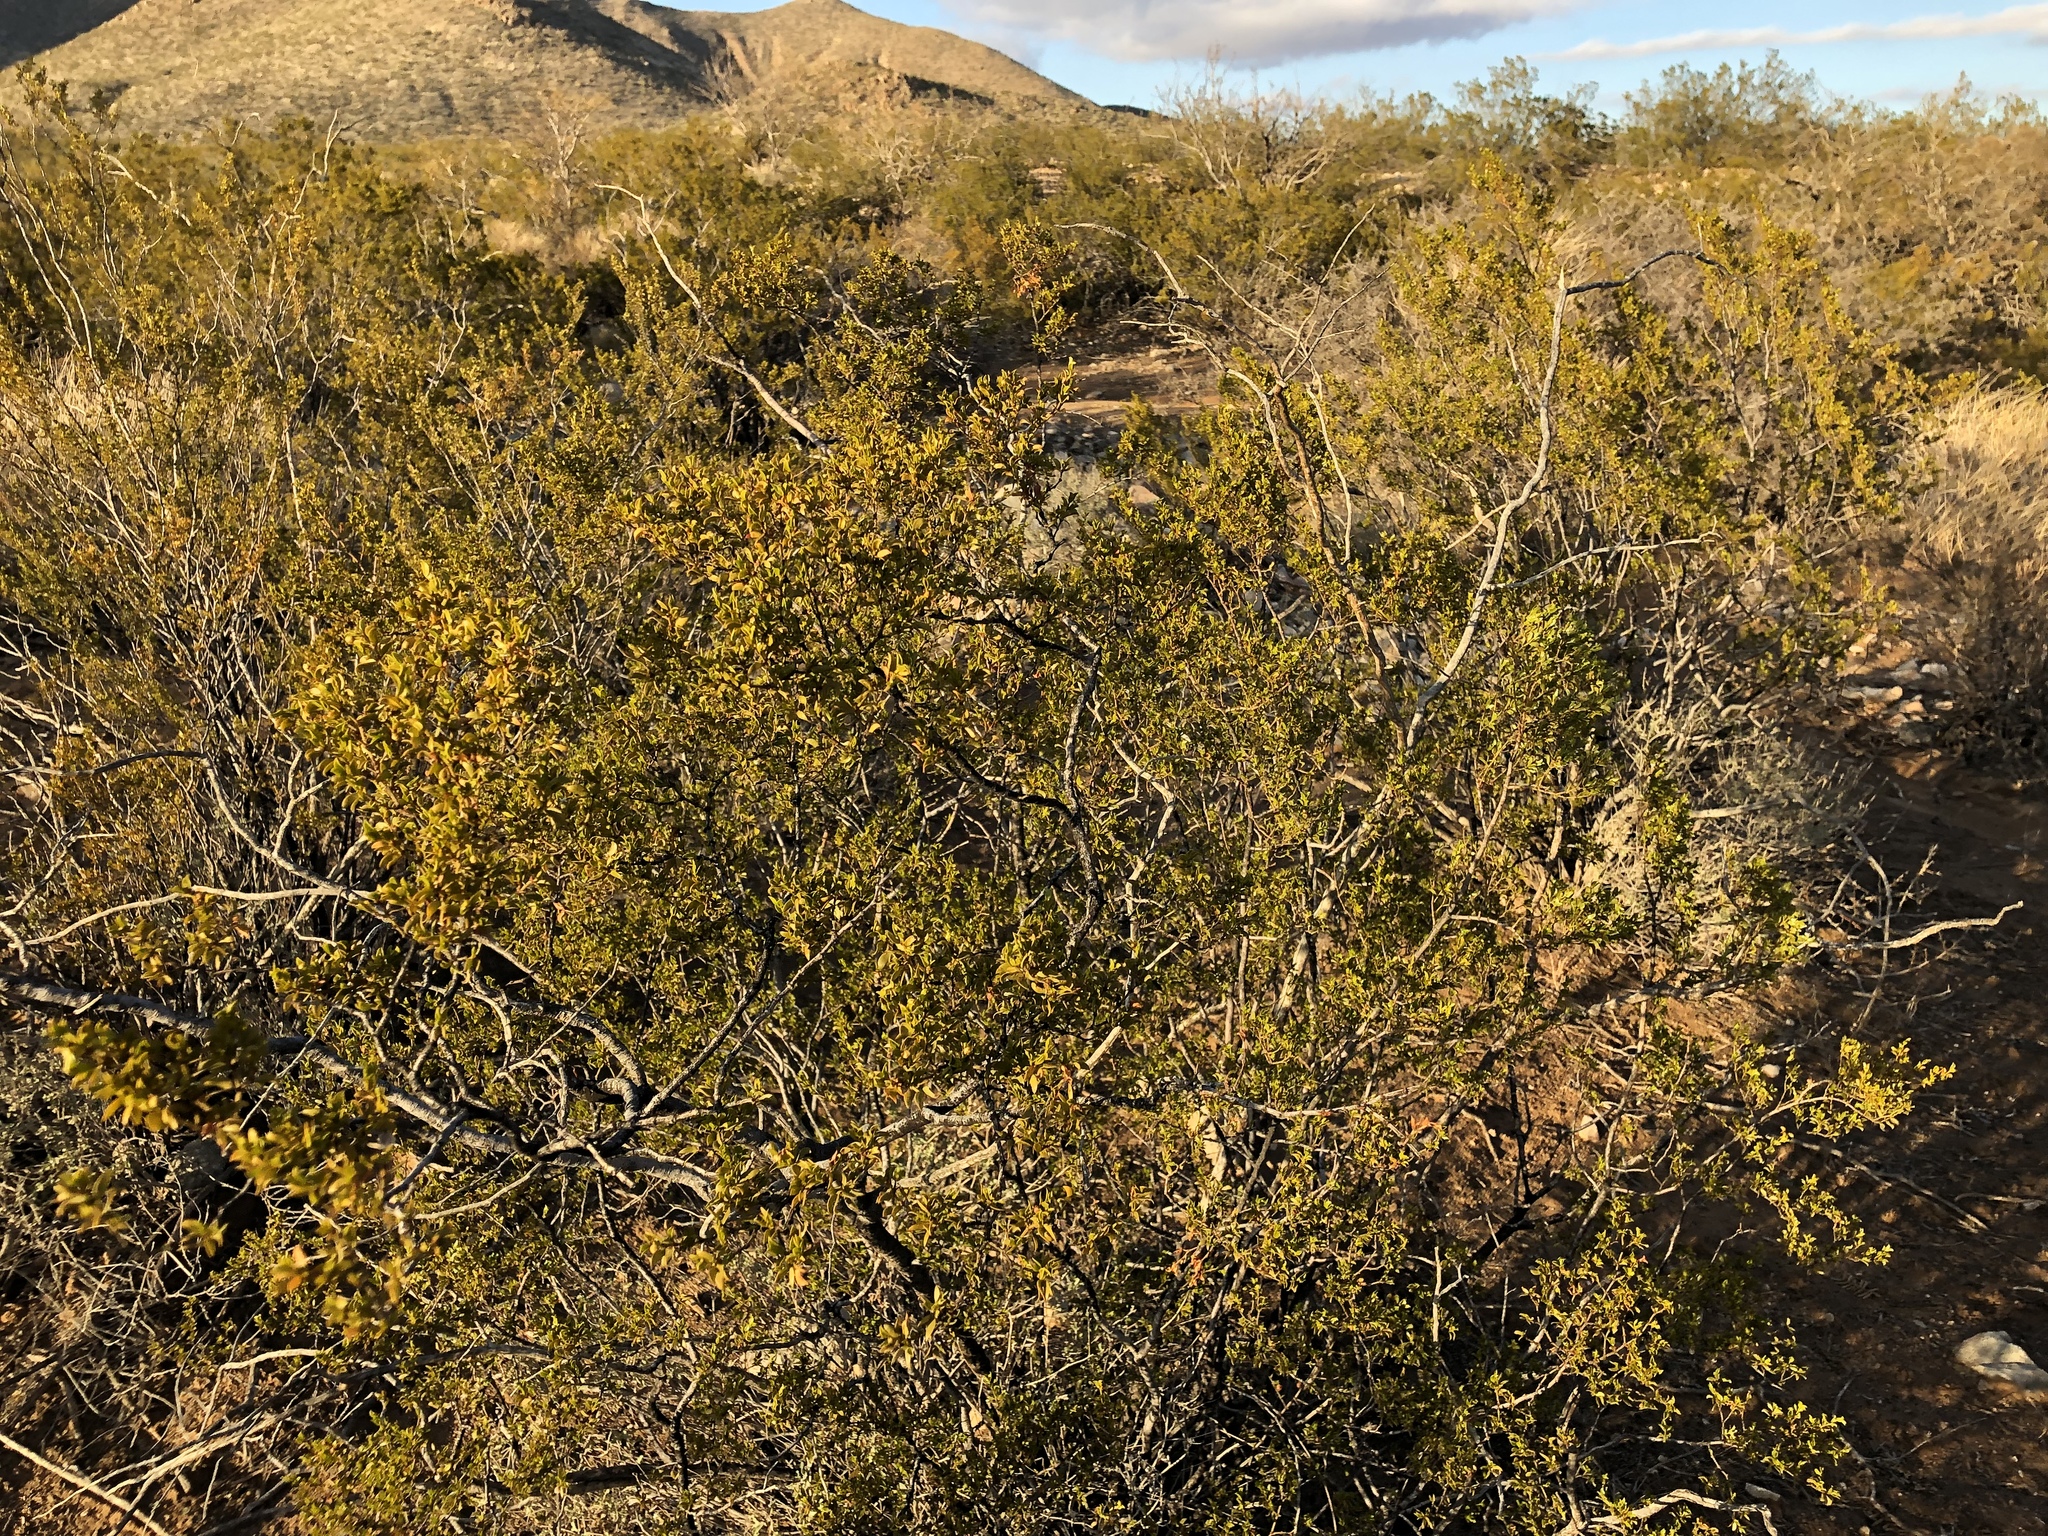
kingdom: Plantae
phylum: Tracheophyta
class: Magnoliopsida
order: Zygophyllales
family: Zygophyllaceae
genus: Larrea
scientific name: Larrea tridentata
